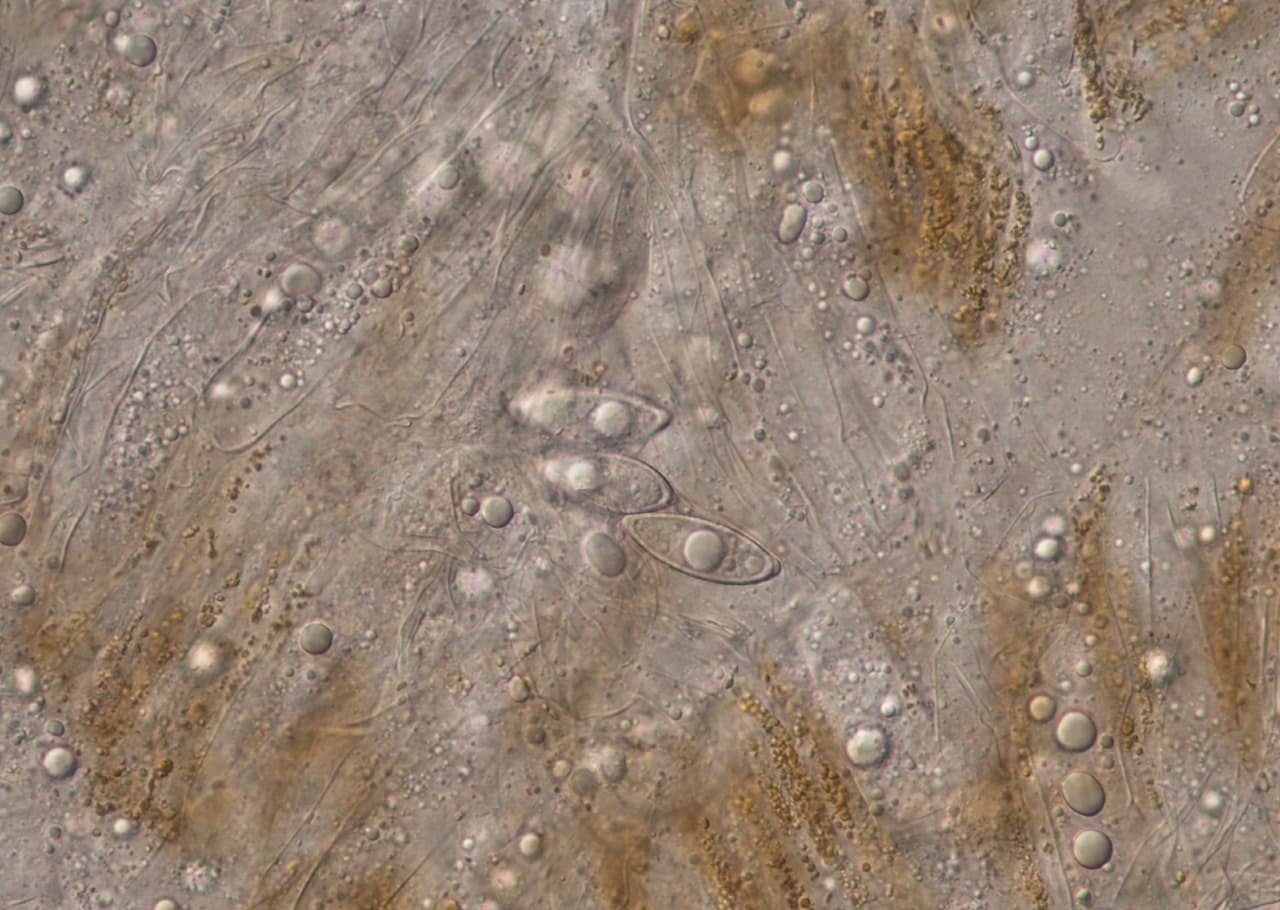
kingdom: Fungi
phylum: Ascomycota
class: Pezizomycetes
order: Pezizales
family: Discinaceae
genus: Gyromitra
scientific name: Gyromitra gigas
